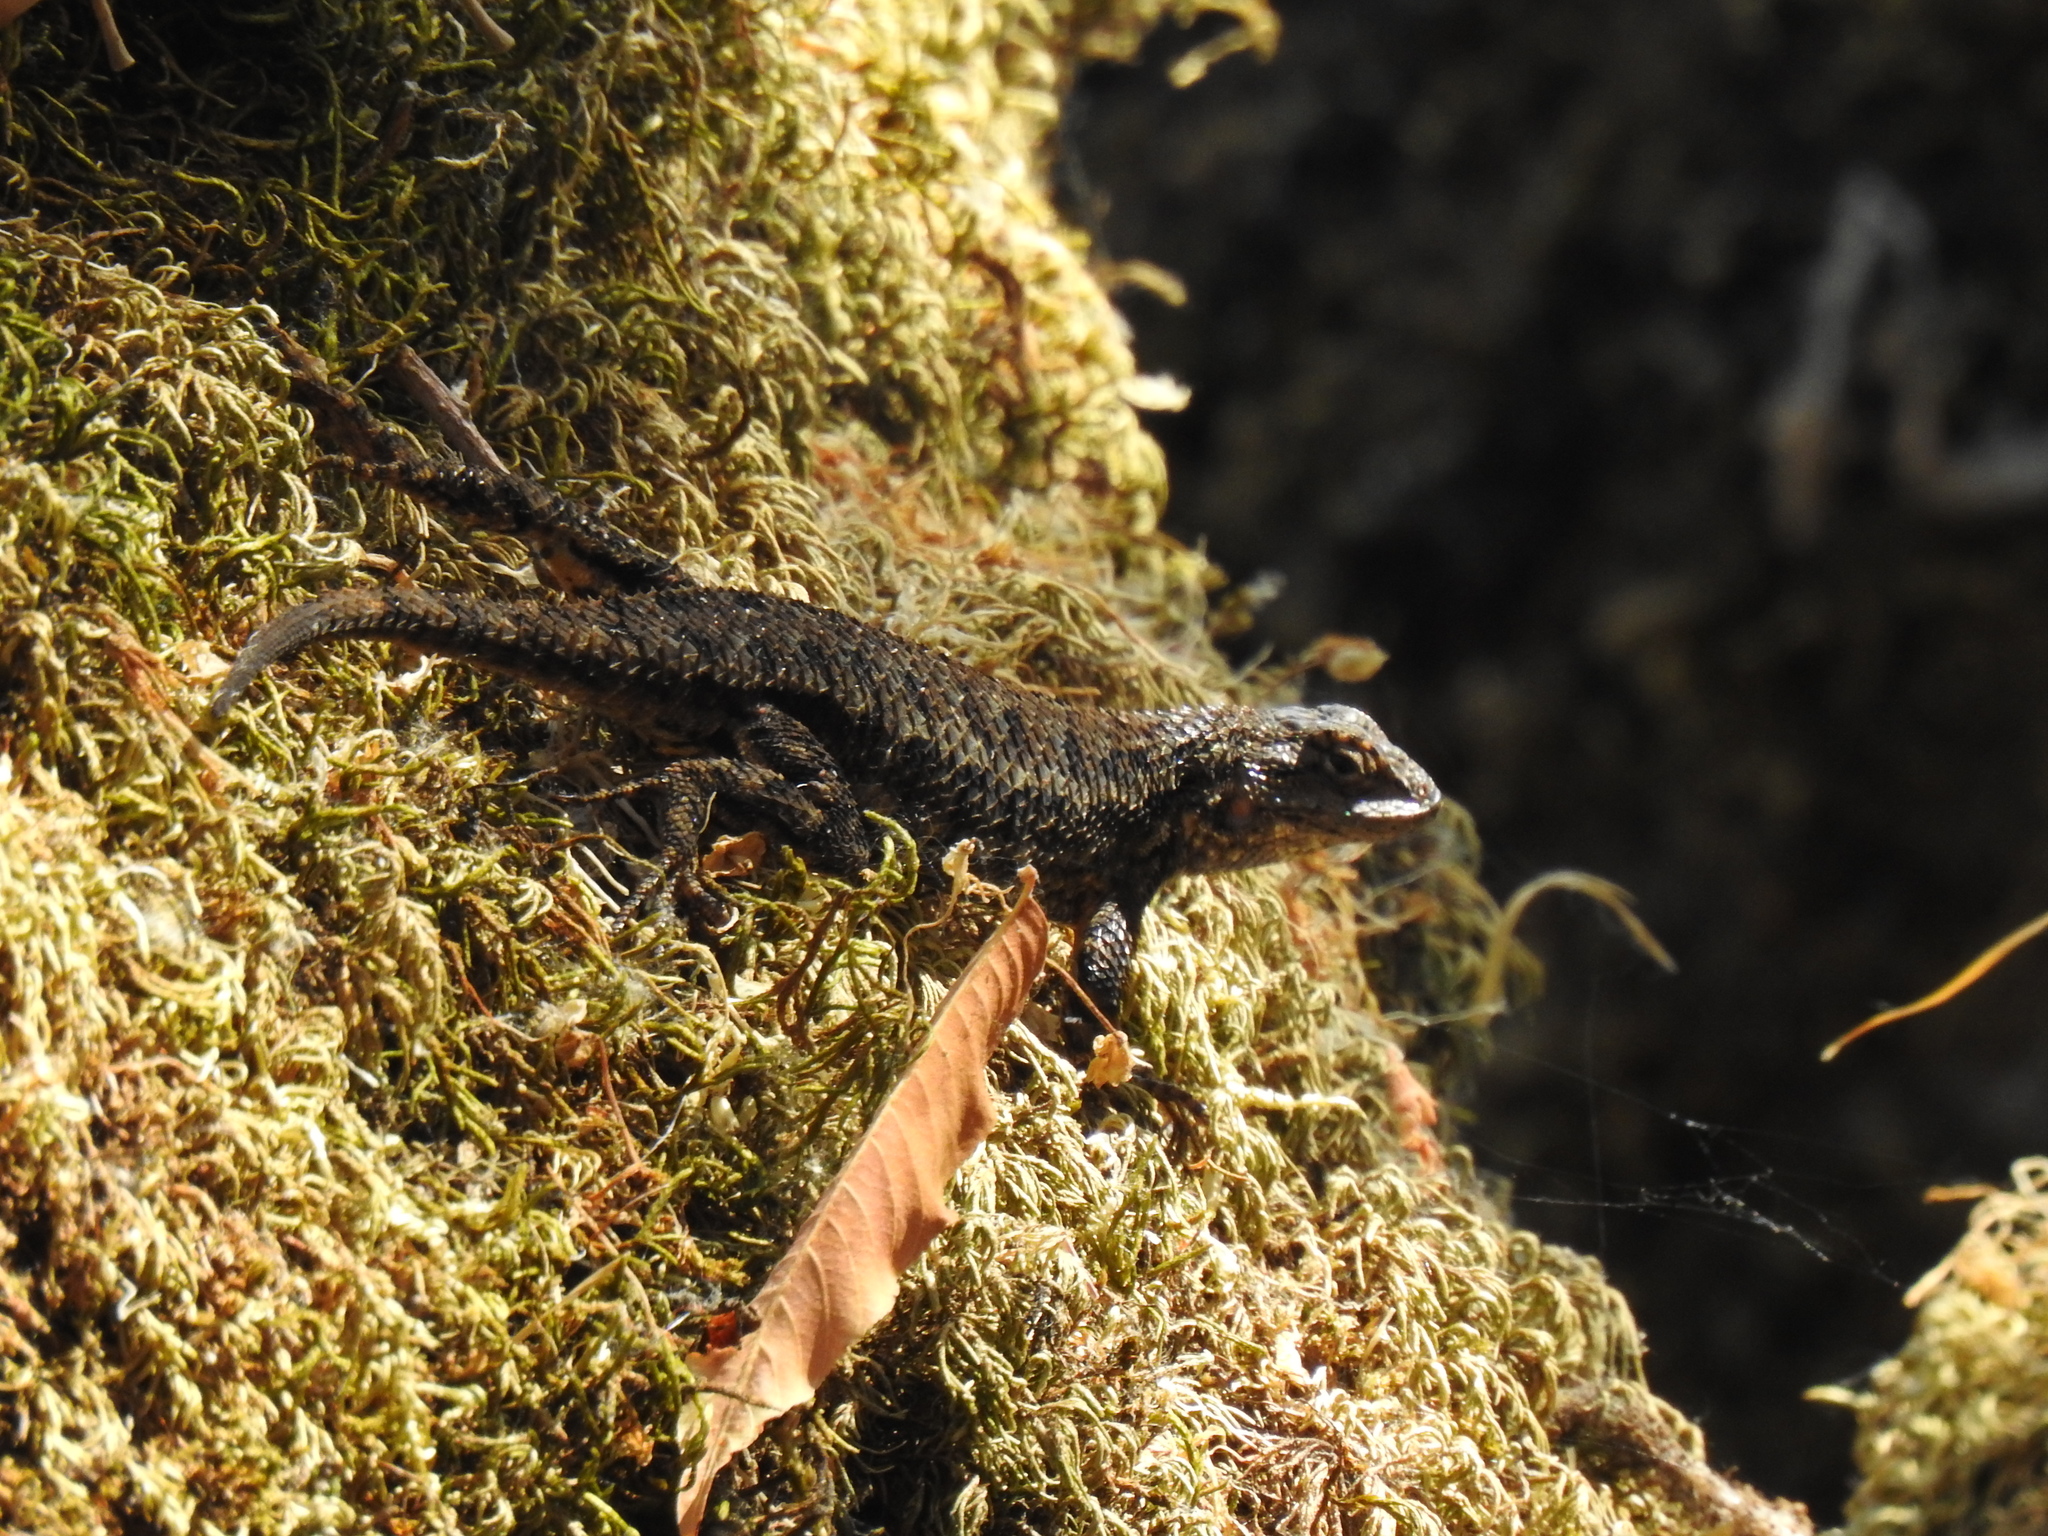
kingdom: Animalia
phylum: Chordata
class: Squamata
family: Phrynosomatidae
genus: Sceloporus
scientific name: Sceloporus occidentalis
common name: Western fence lizard
